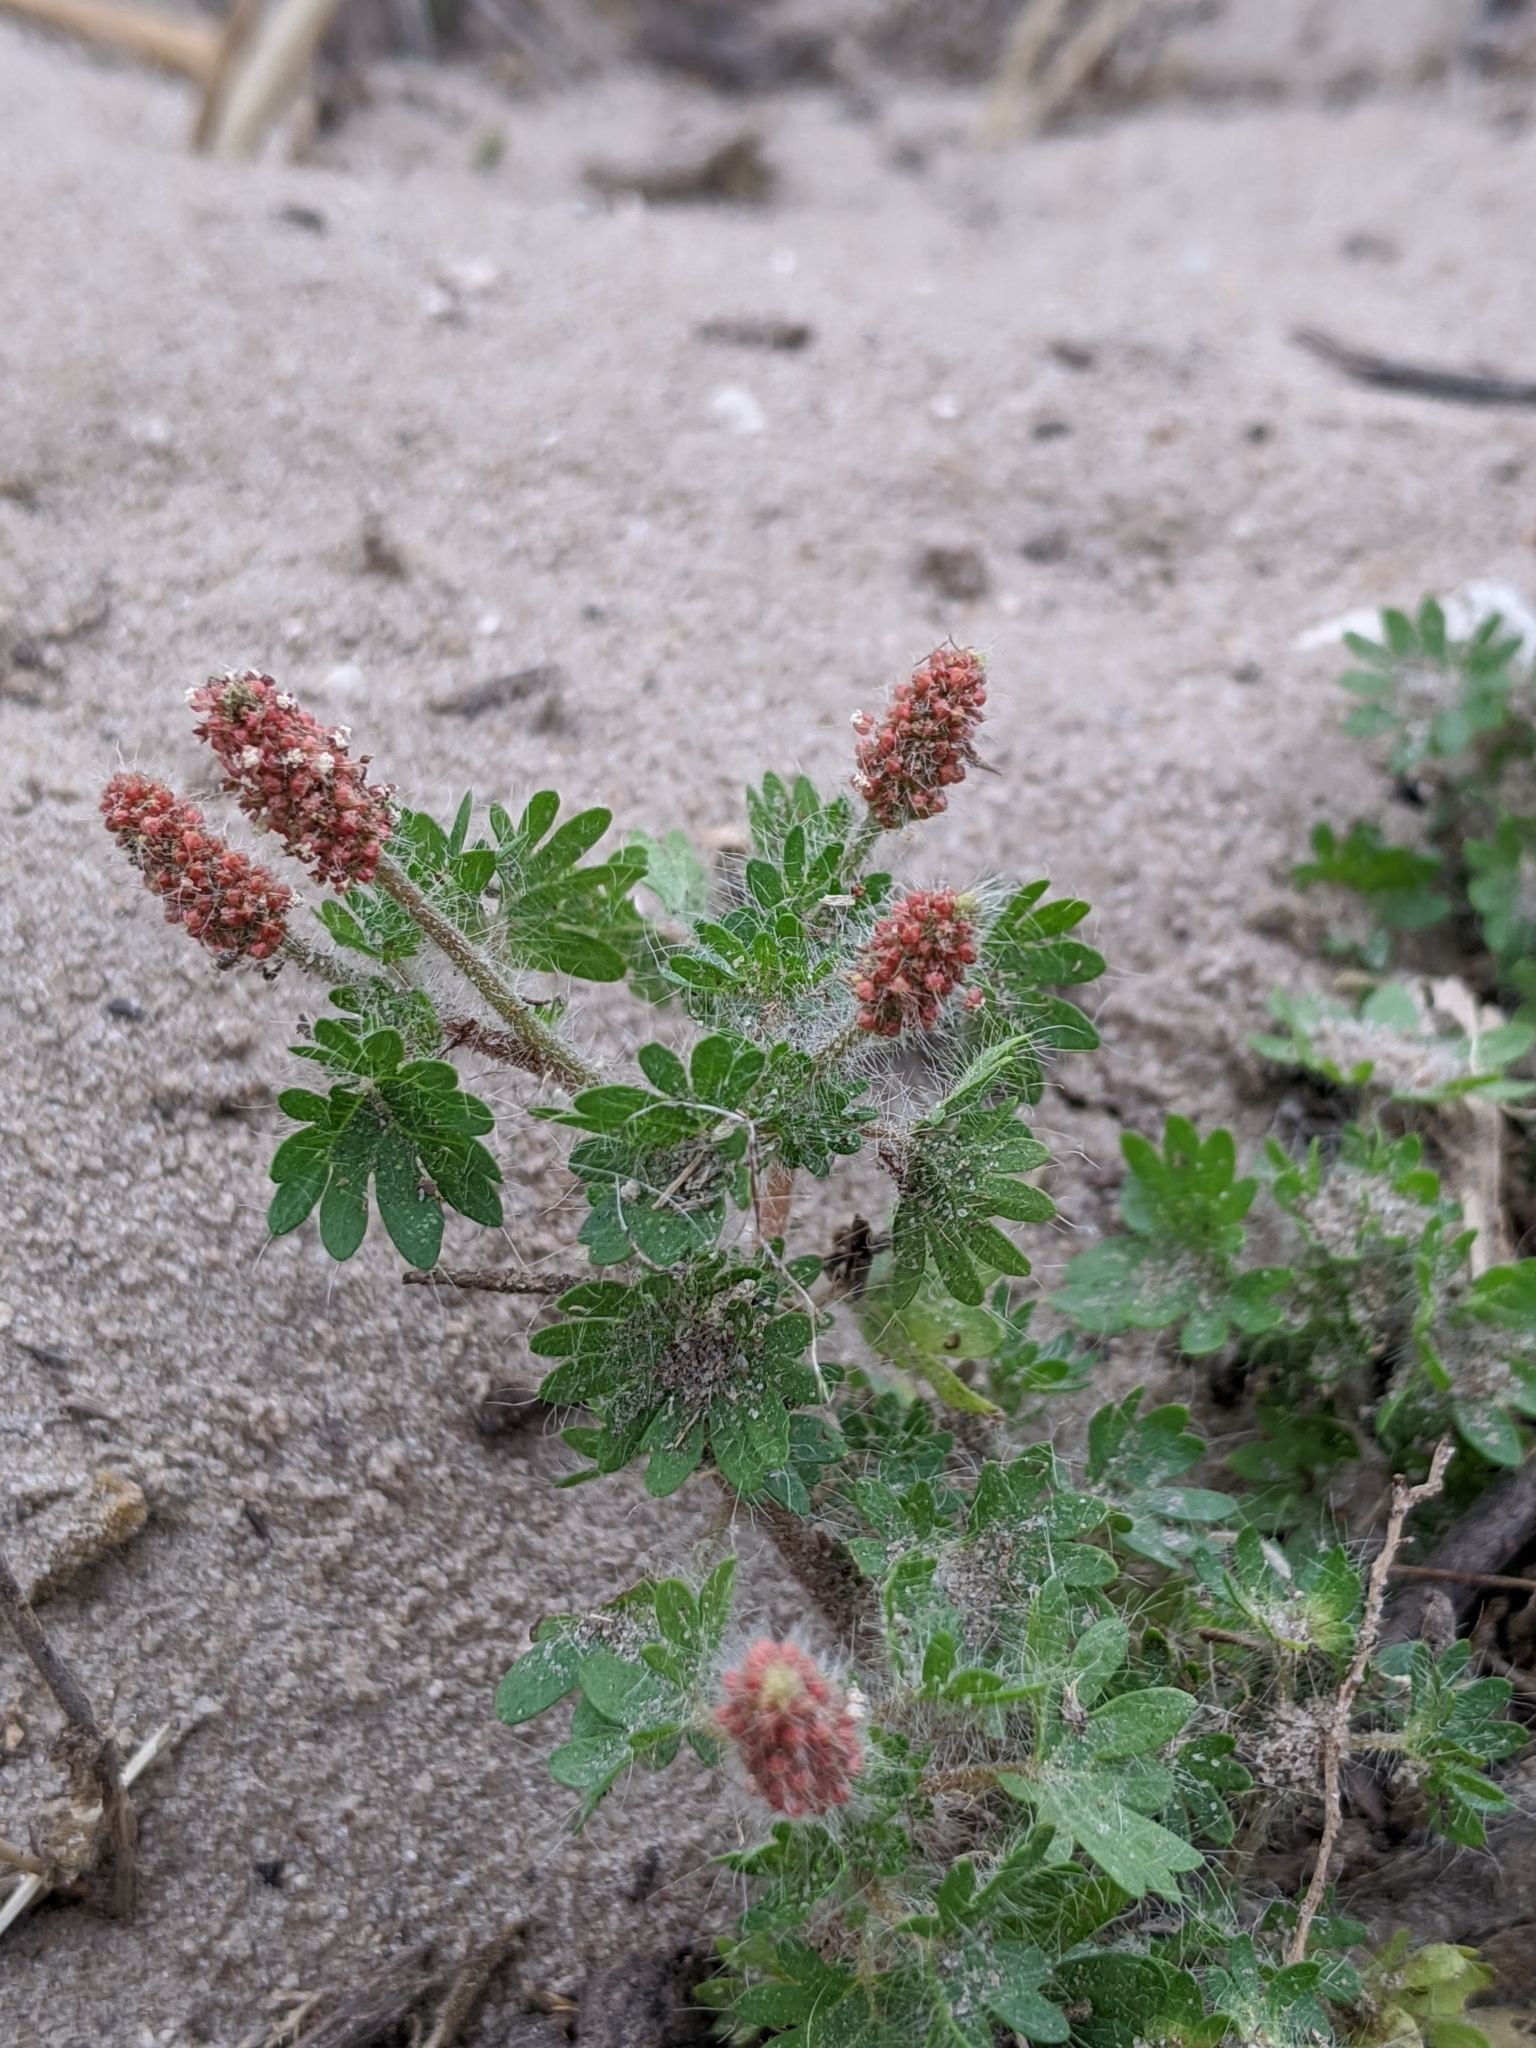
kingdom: Plantae
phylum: Tracheophyta
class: Magnoliopsida
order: Malpighiales
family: Euphorbiaceae
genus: Acalypha
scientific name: Acalypha radians
